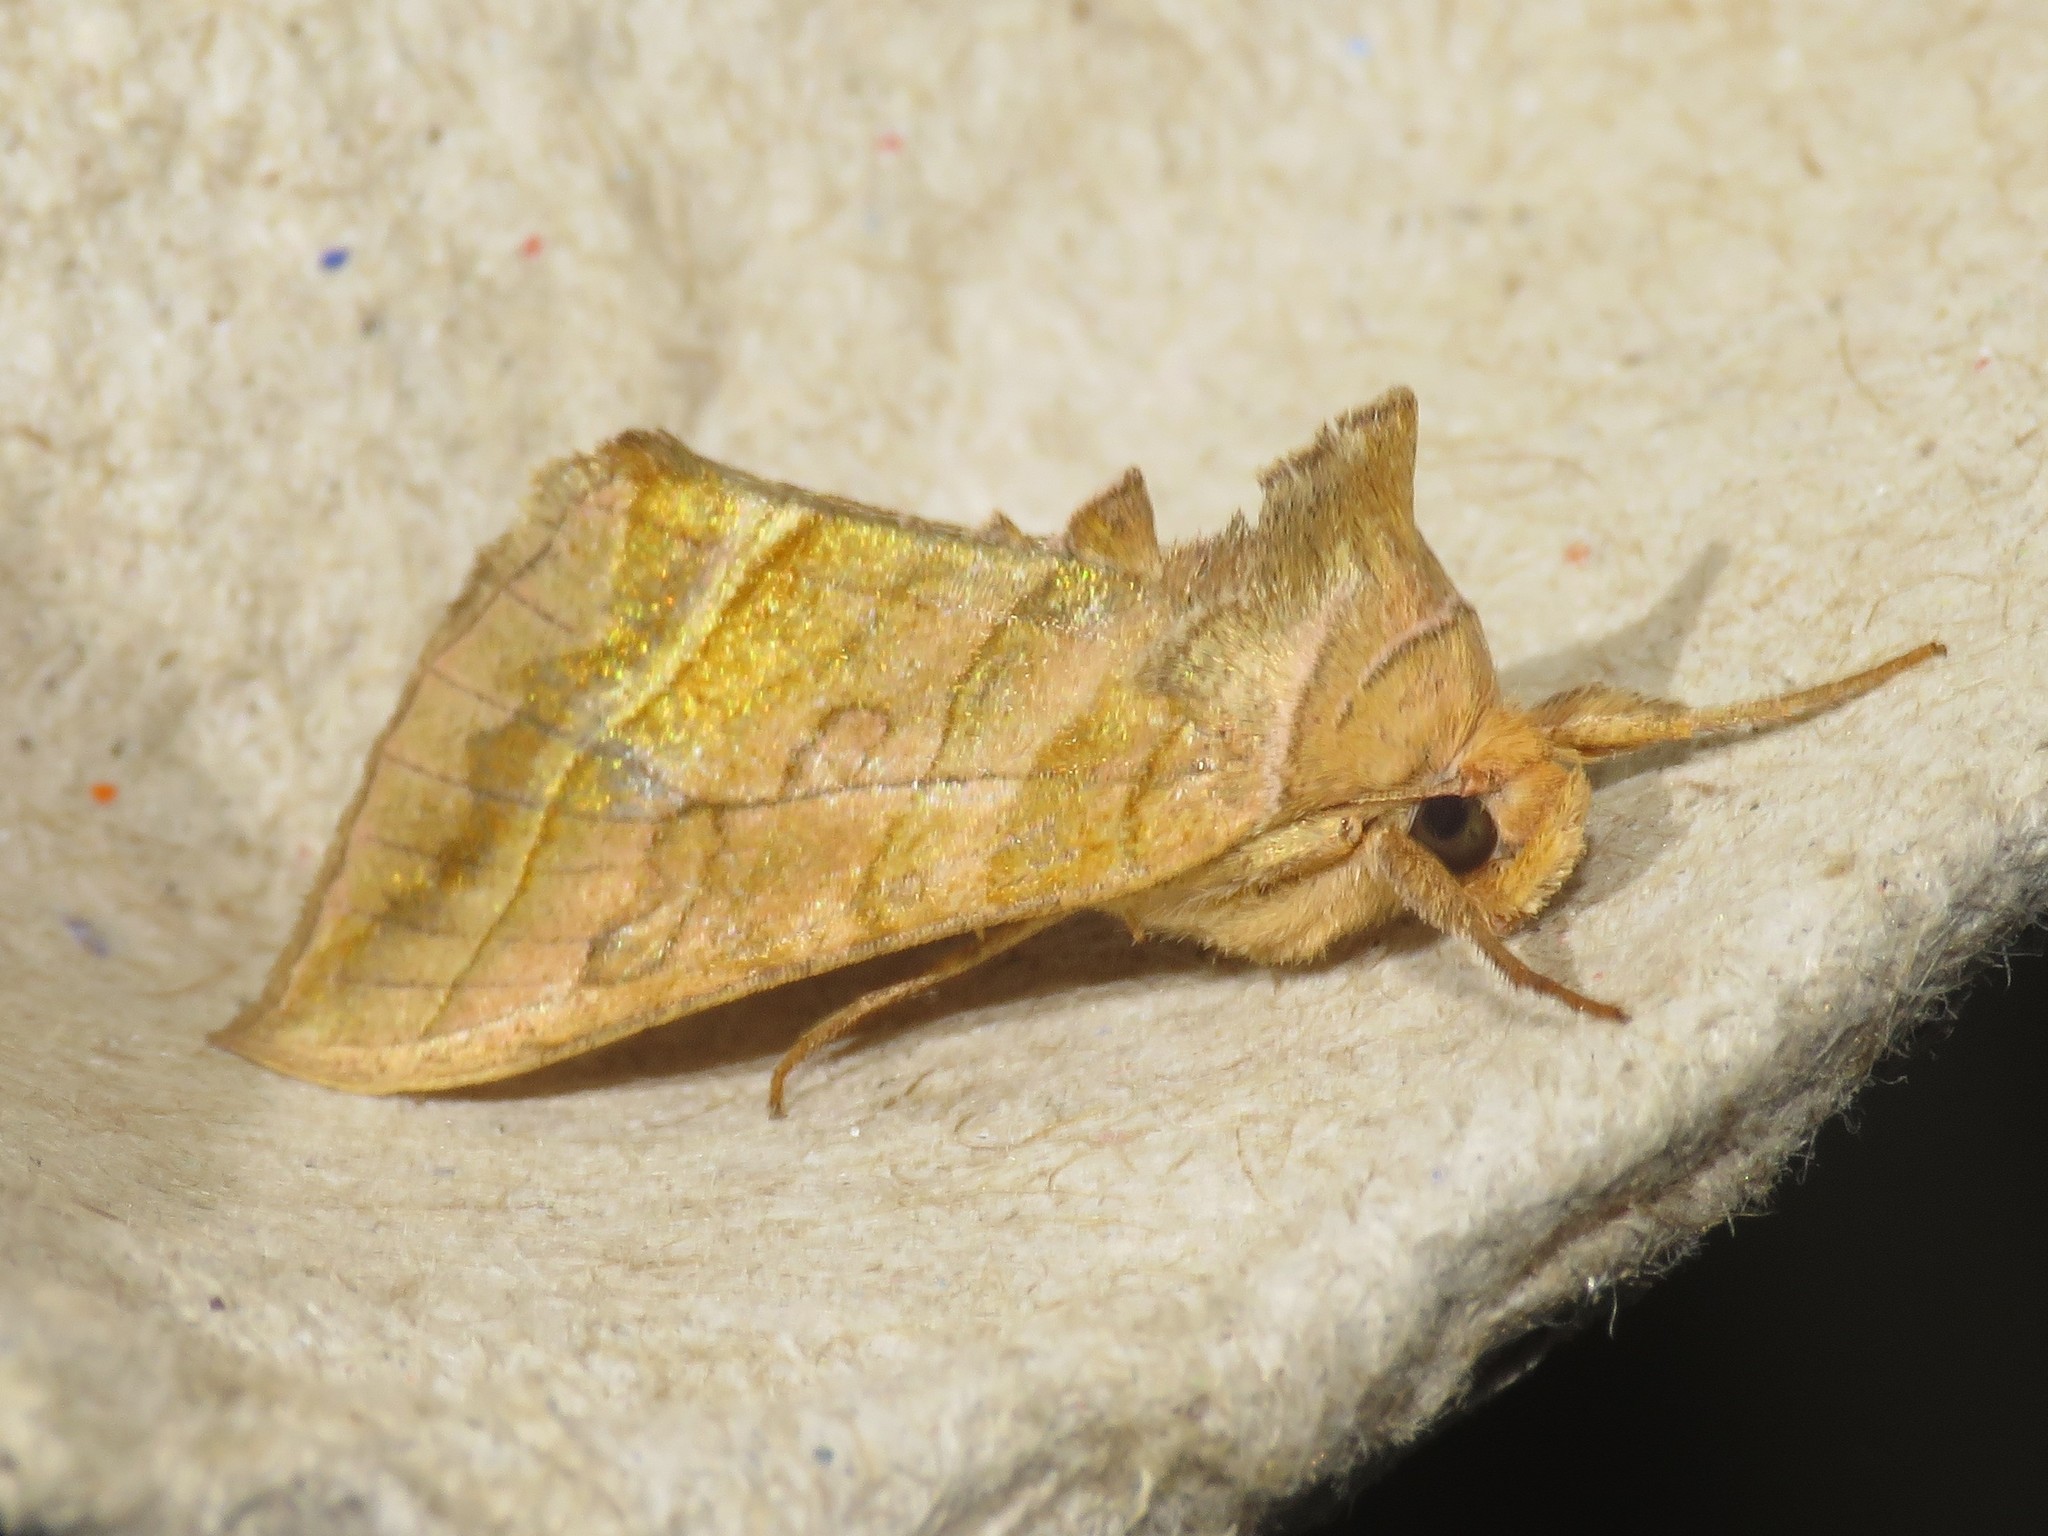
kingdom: Animalia
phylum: Arthropoda
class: Insecta
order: Lepidoptera
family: Noctuidae
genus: Diachrysia
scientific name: Diachrysia aereoides
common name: Dark-spotted looper moth
